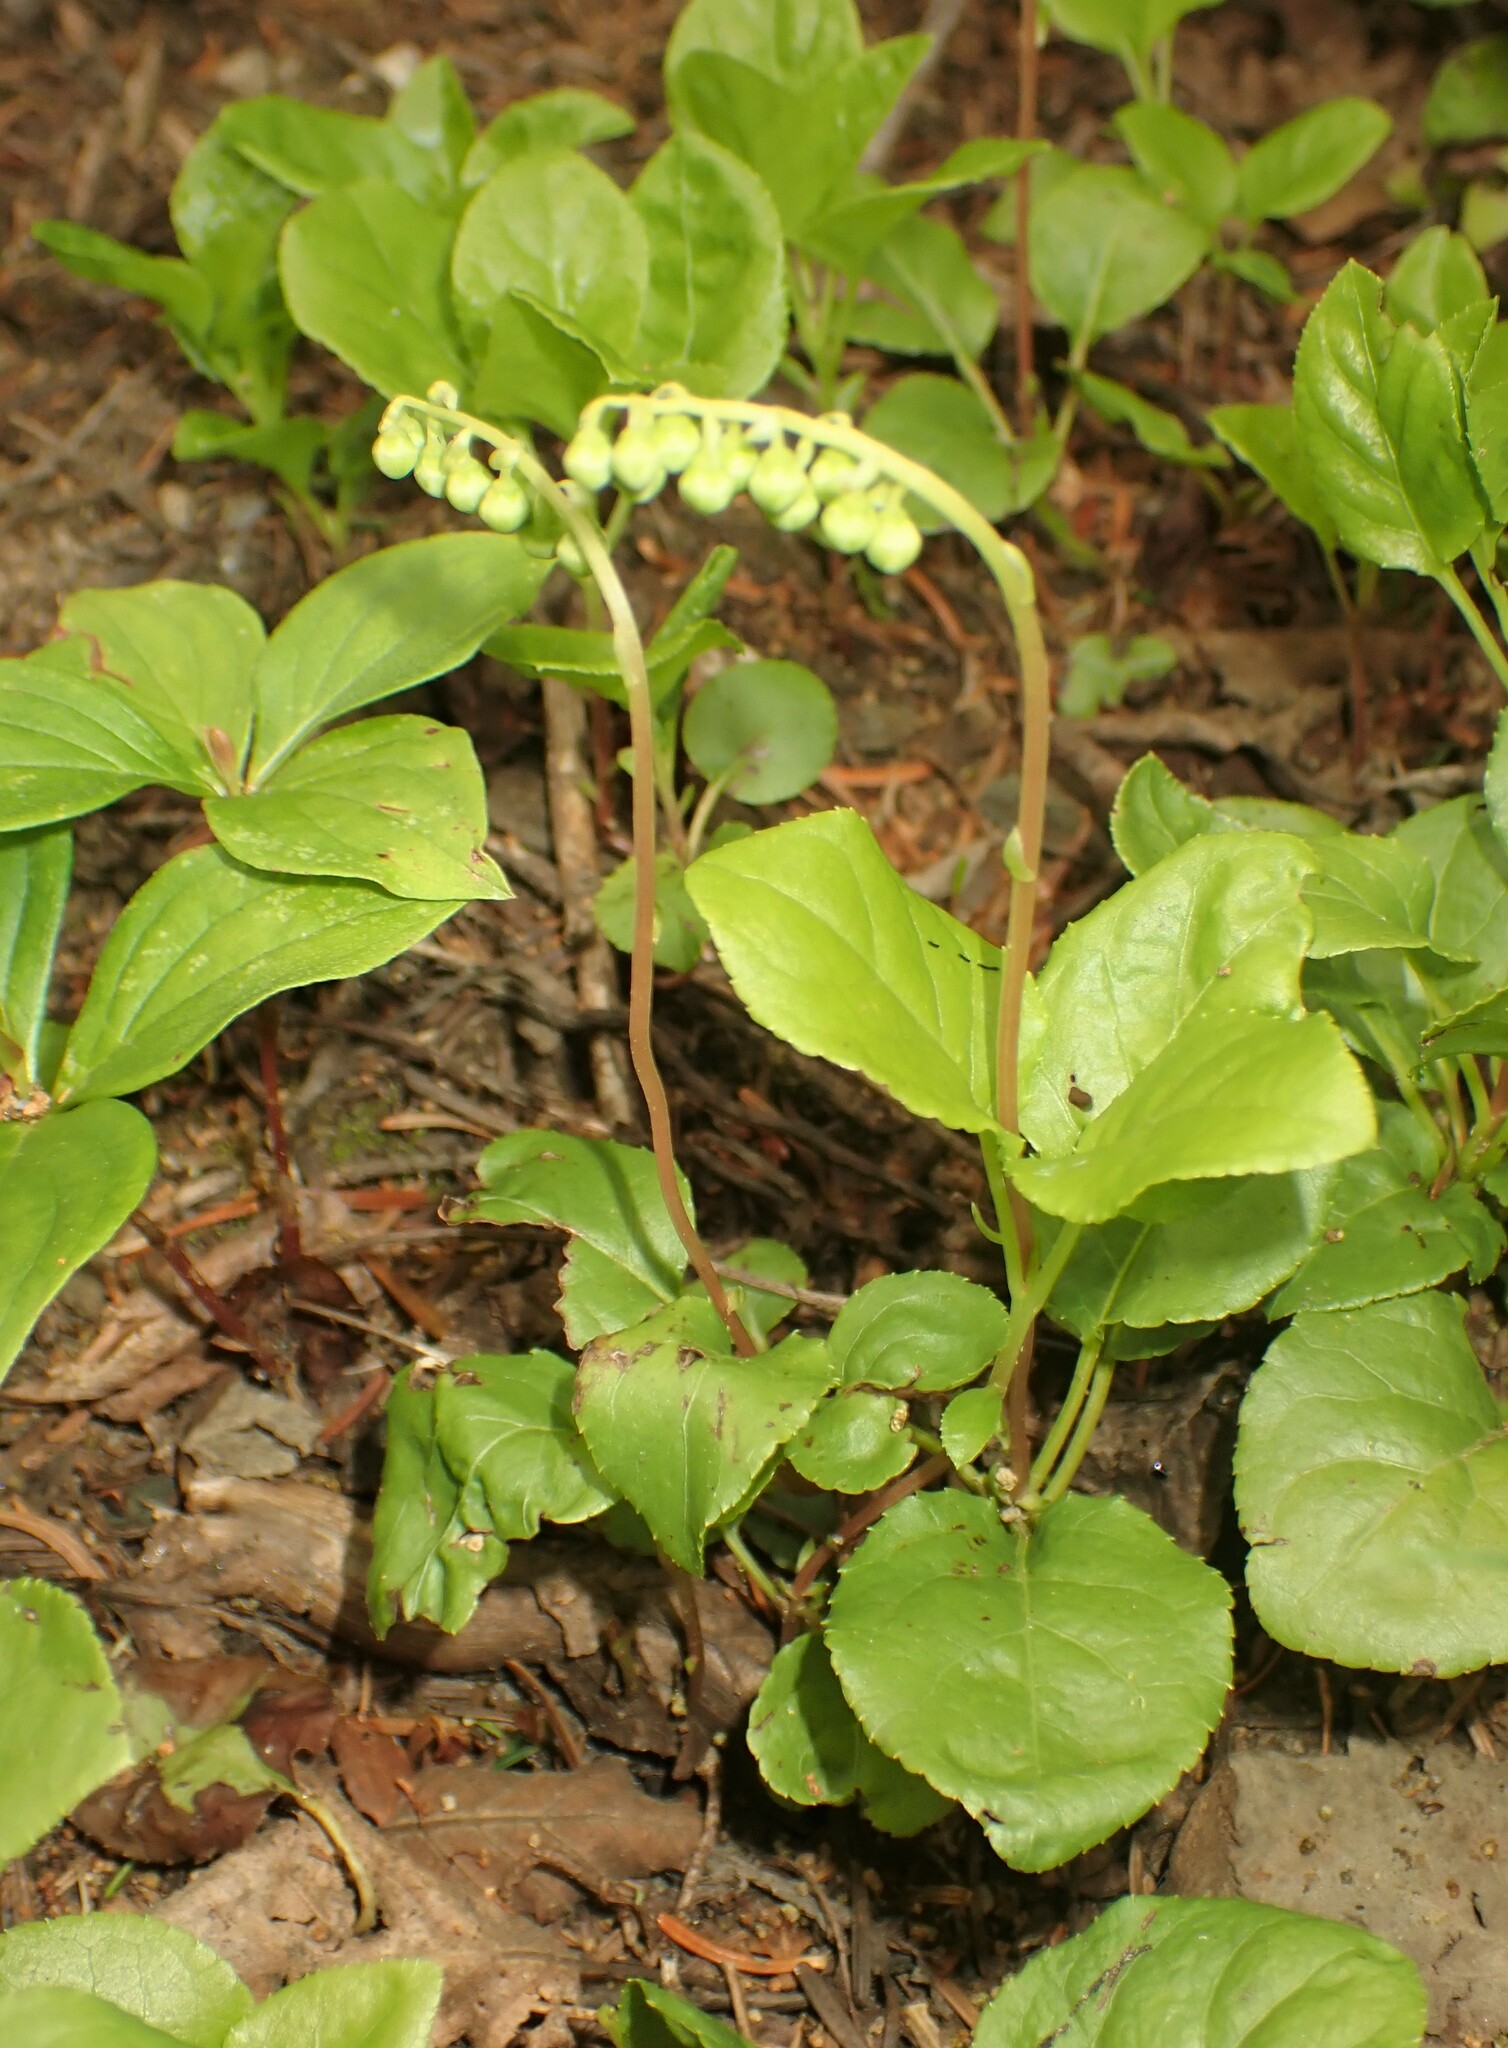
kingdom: Plantae
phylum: Tracheophyta
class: Magnoliopsida
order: Ericales
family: Ericaceae
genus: Orthilia
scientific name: Orthilia secunda
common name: One-sided orthilia
